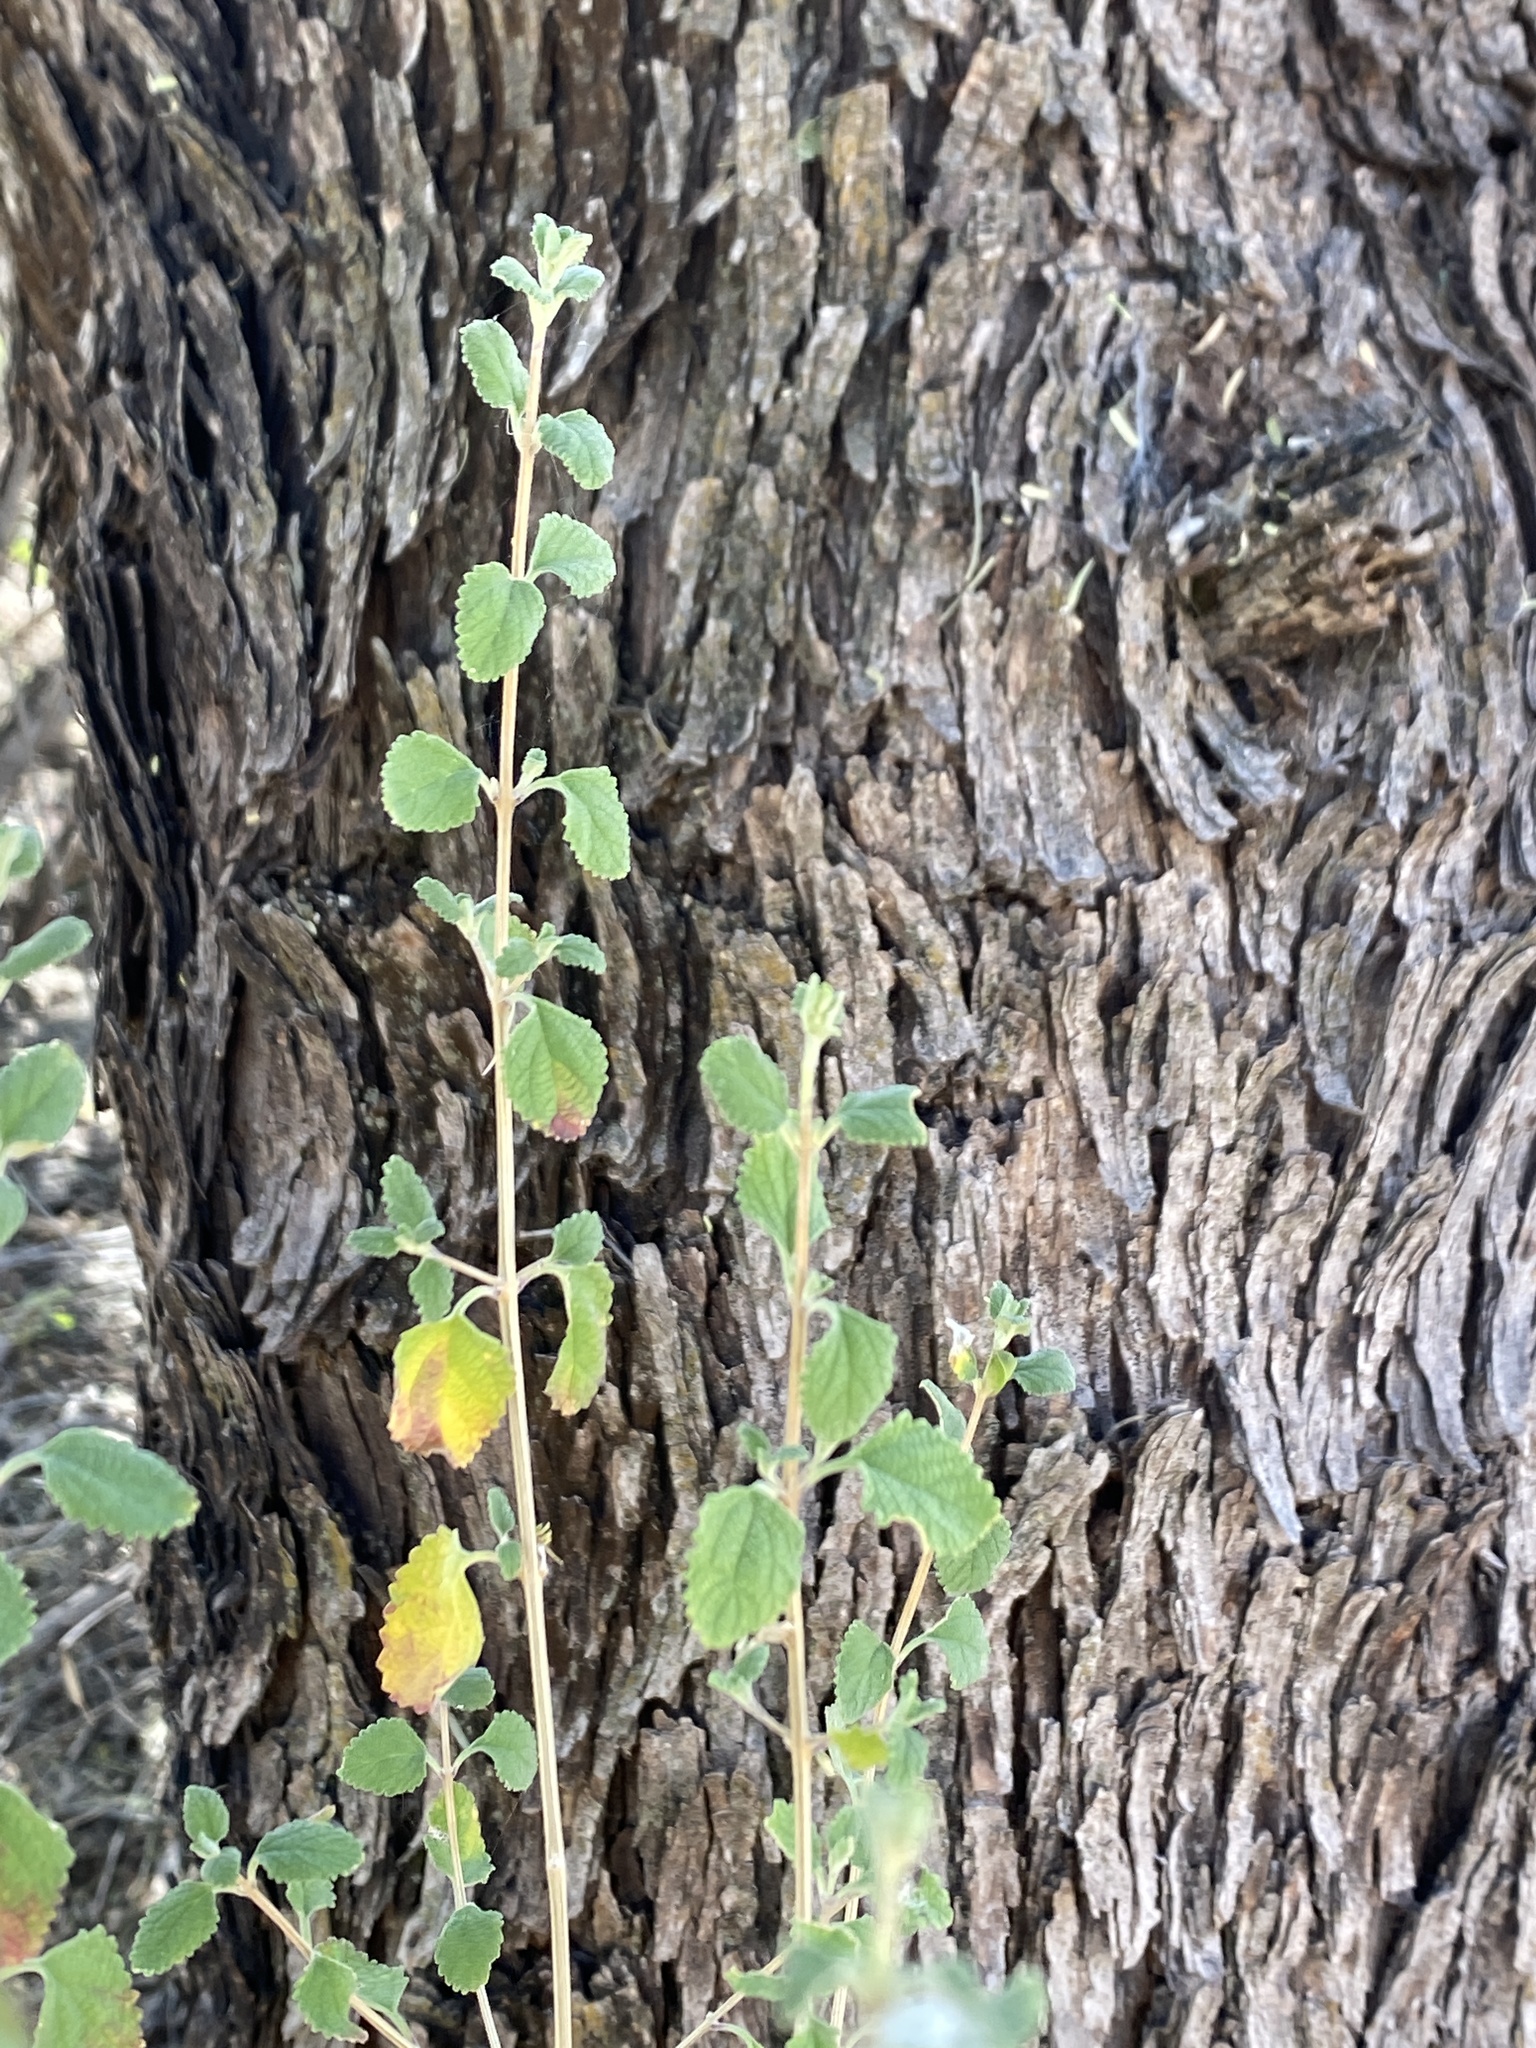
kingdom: Plantae
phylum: Tracheophyta
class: Magnoliopsida
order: Lamiales
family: Verbenaceae
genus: Aloysia
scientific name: Aloysia wrightii
